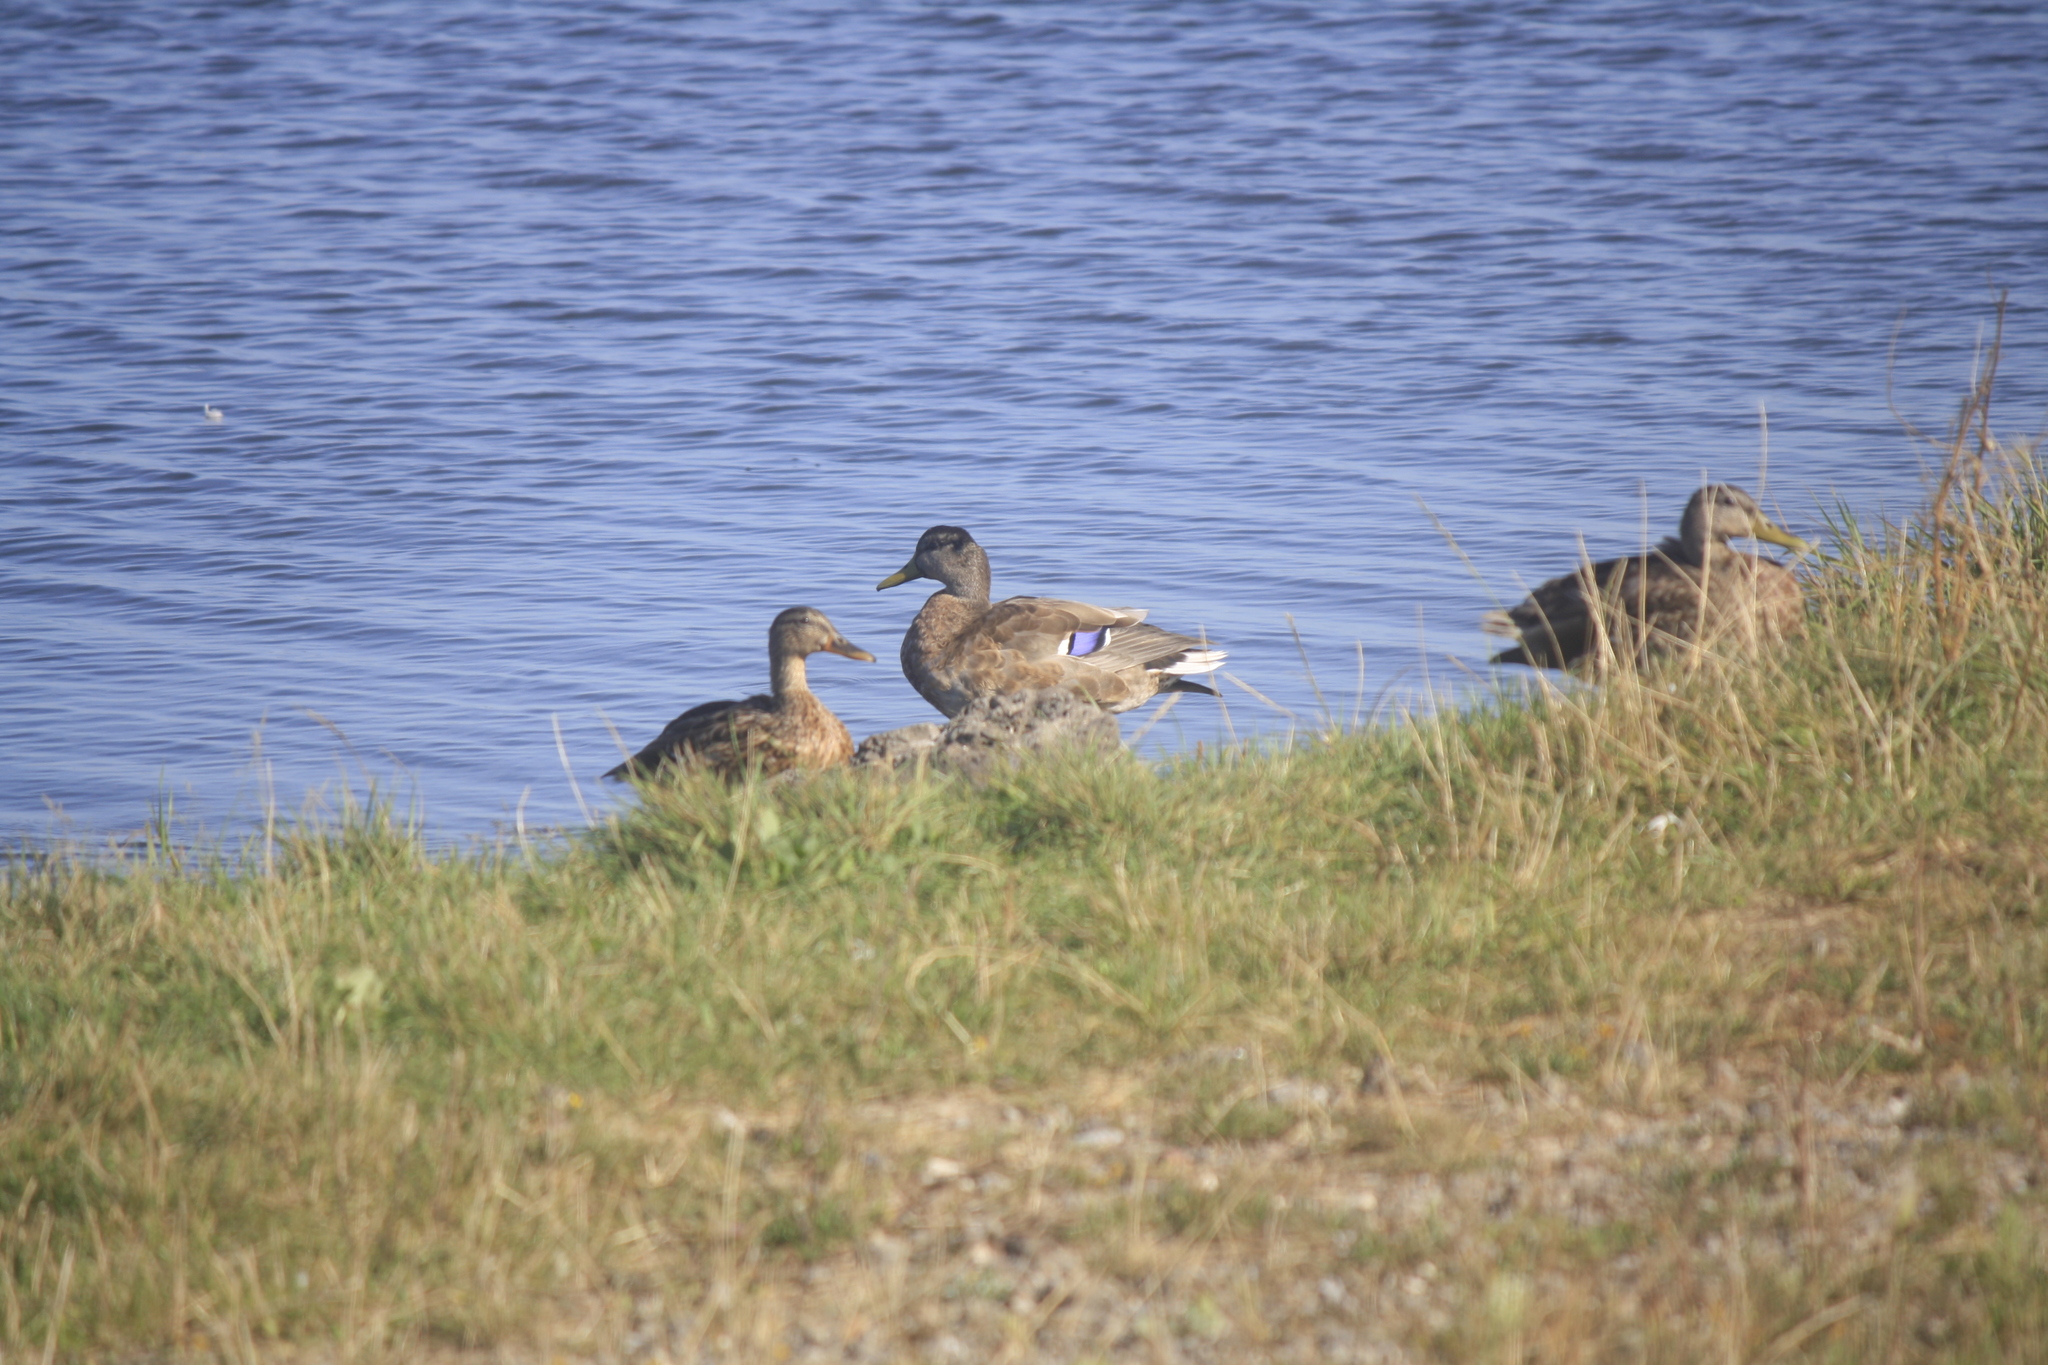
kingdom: Animalia
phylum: Chordata
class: Aves
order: Anseriformes
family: Anatidae
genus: Anas
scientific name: Anas platyrhynchos
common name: Mallard
